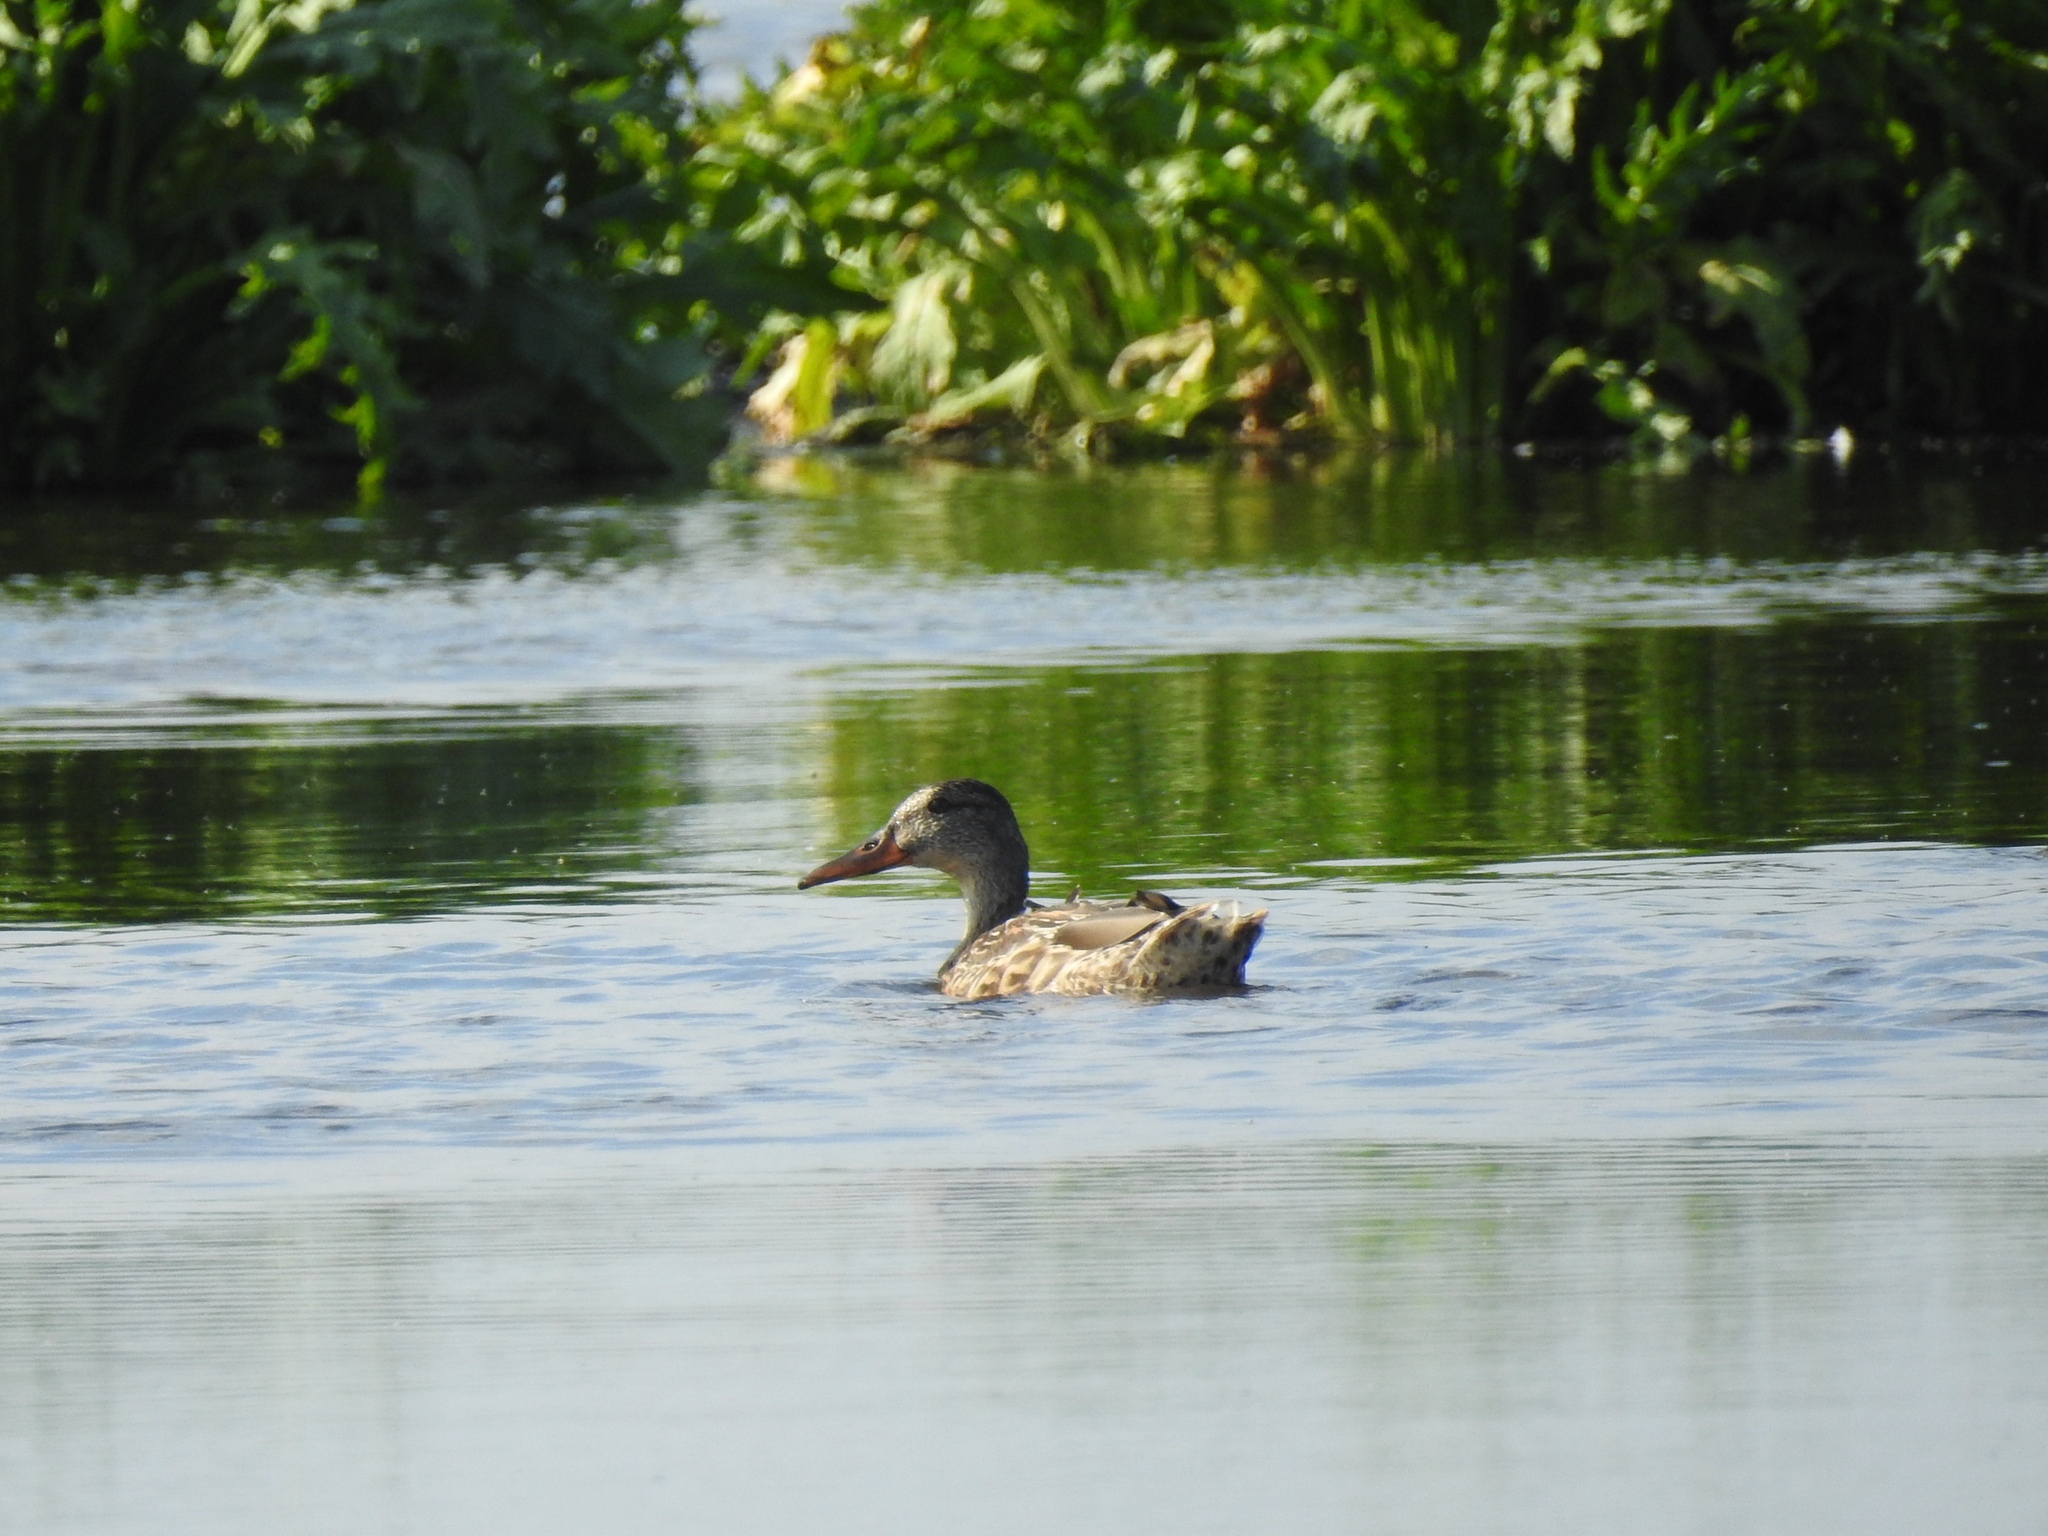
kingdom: Animalia
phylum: Chordata
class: Aves
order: Anseriformes
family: Anatidae
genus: Anas
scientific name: Anas platyrhynchos
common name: Mallard
